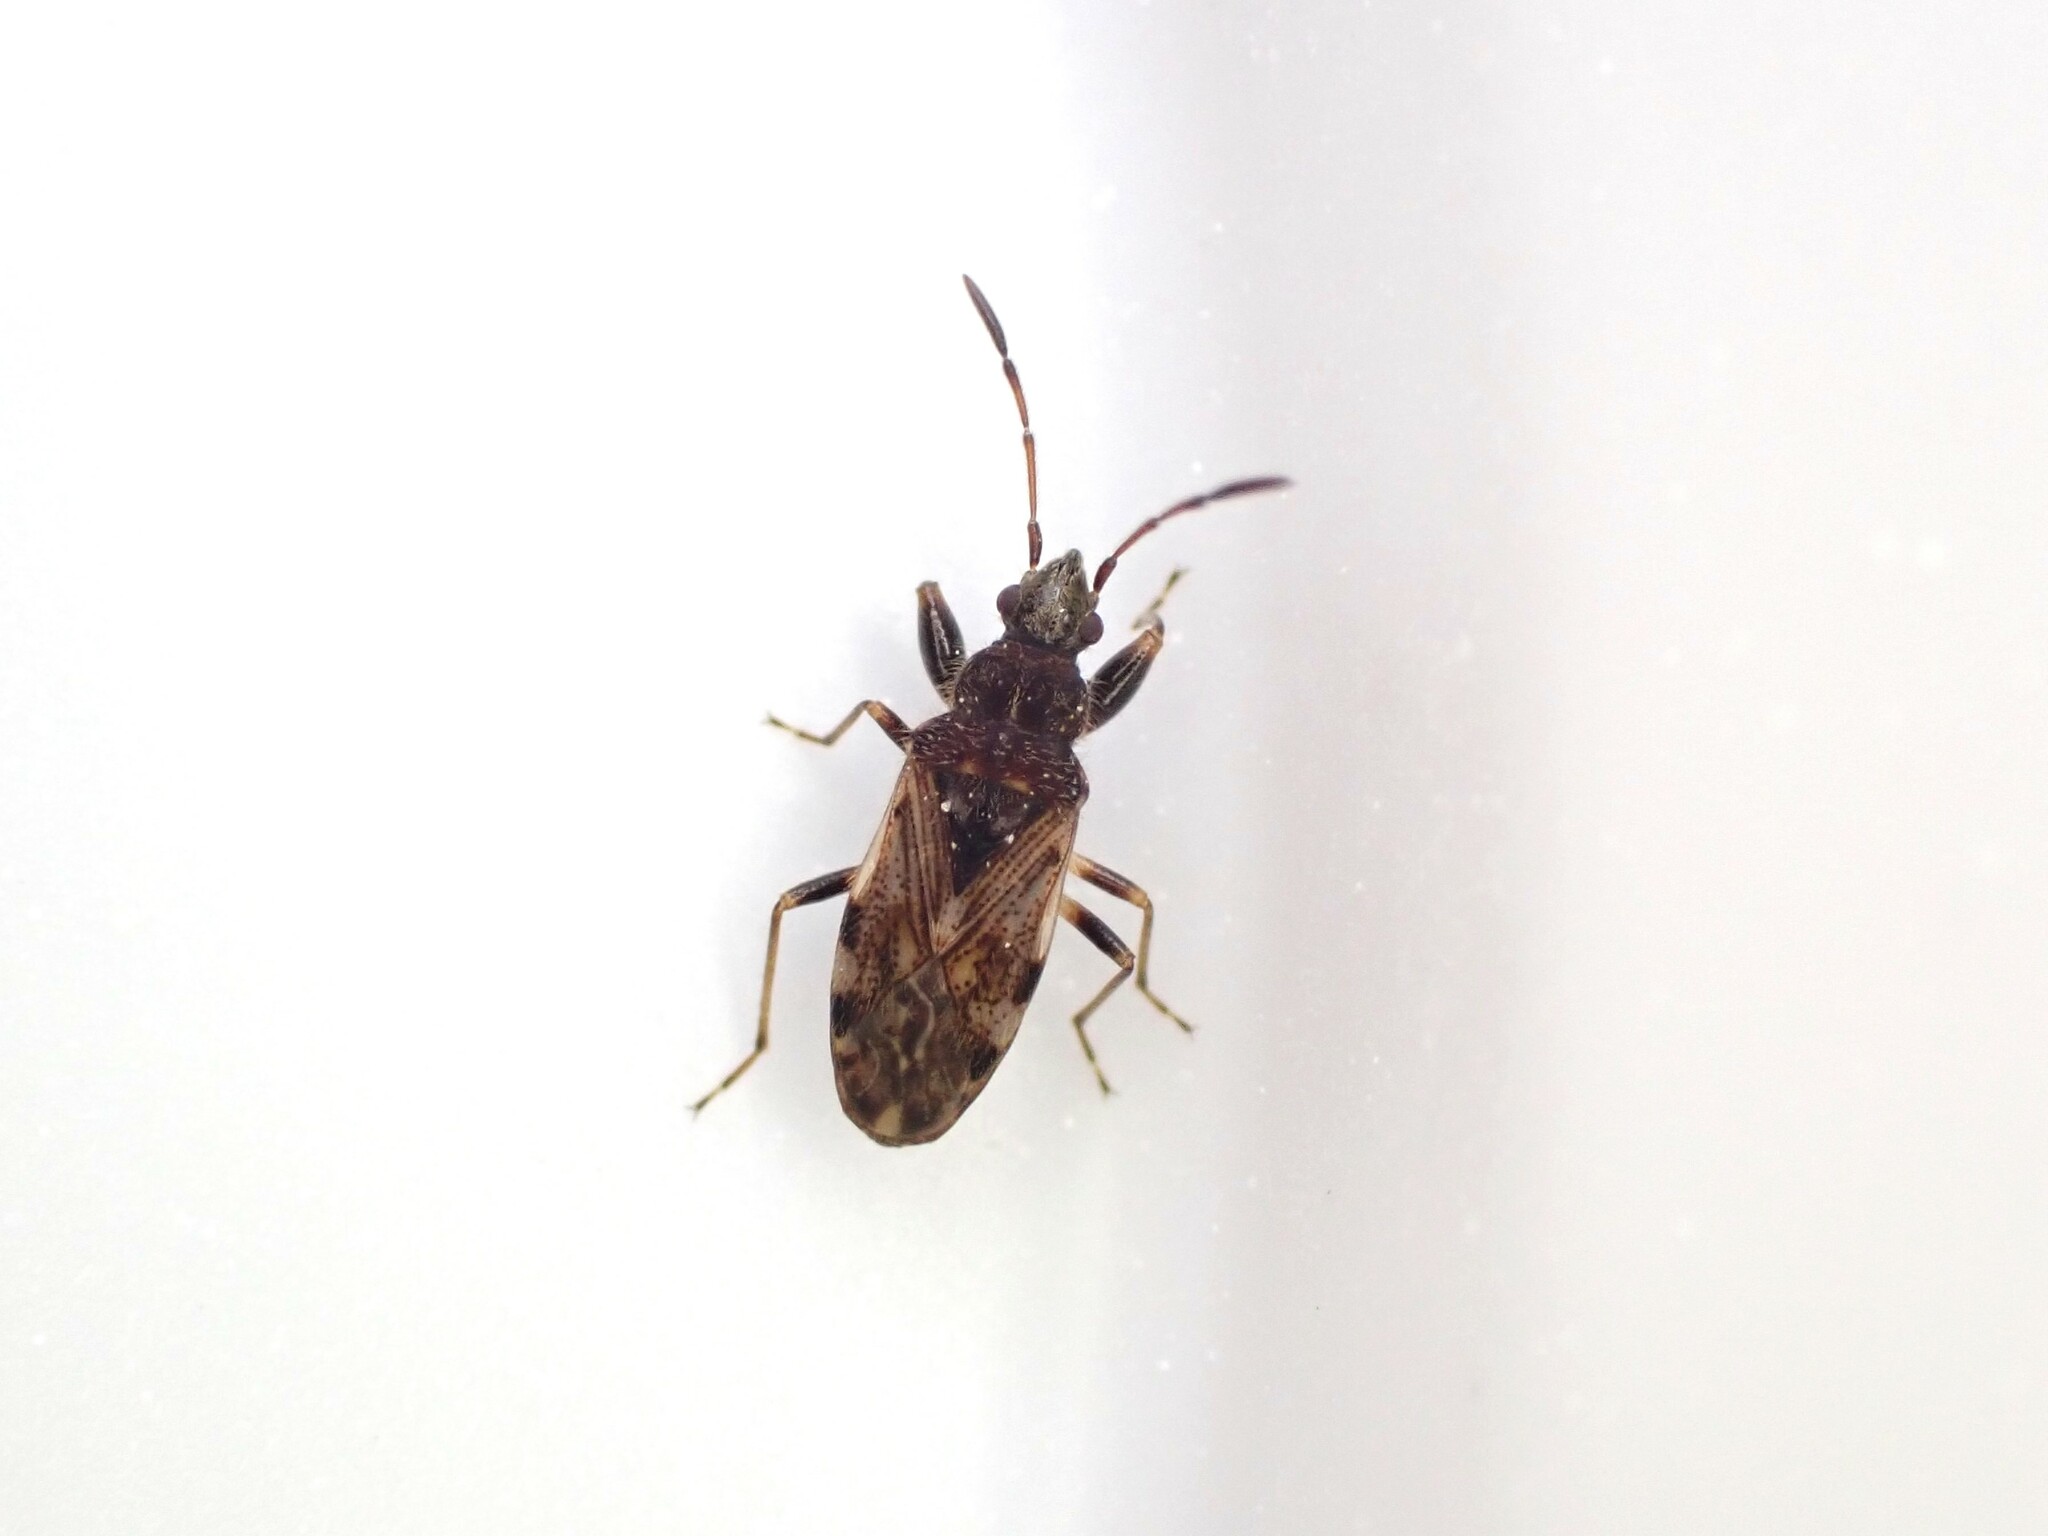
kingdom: Animalia
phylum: Arthropoda
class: Insecta
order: Hemiptera
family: Rhyparochromidae
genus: Remaudiereana
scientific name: Remaudiereana inornatus
